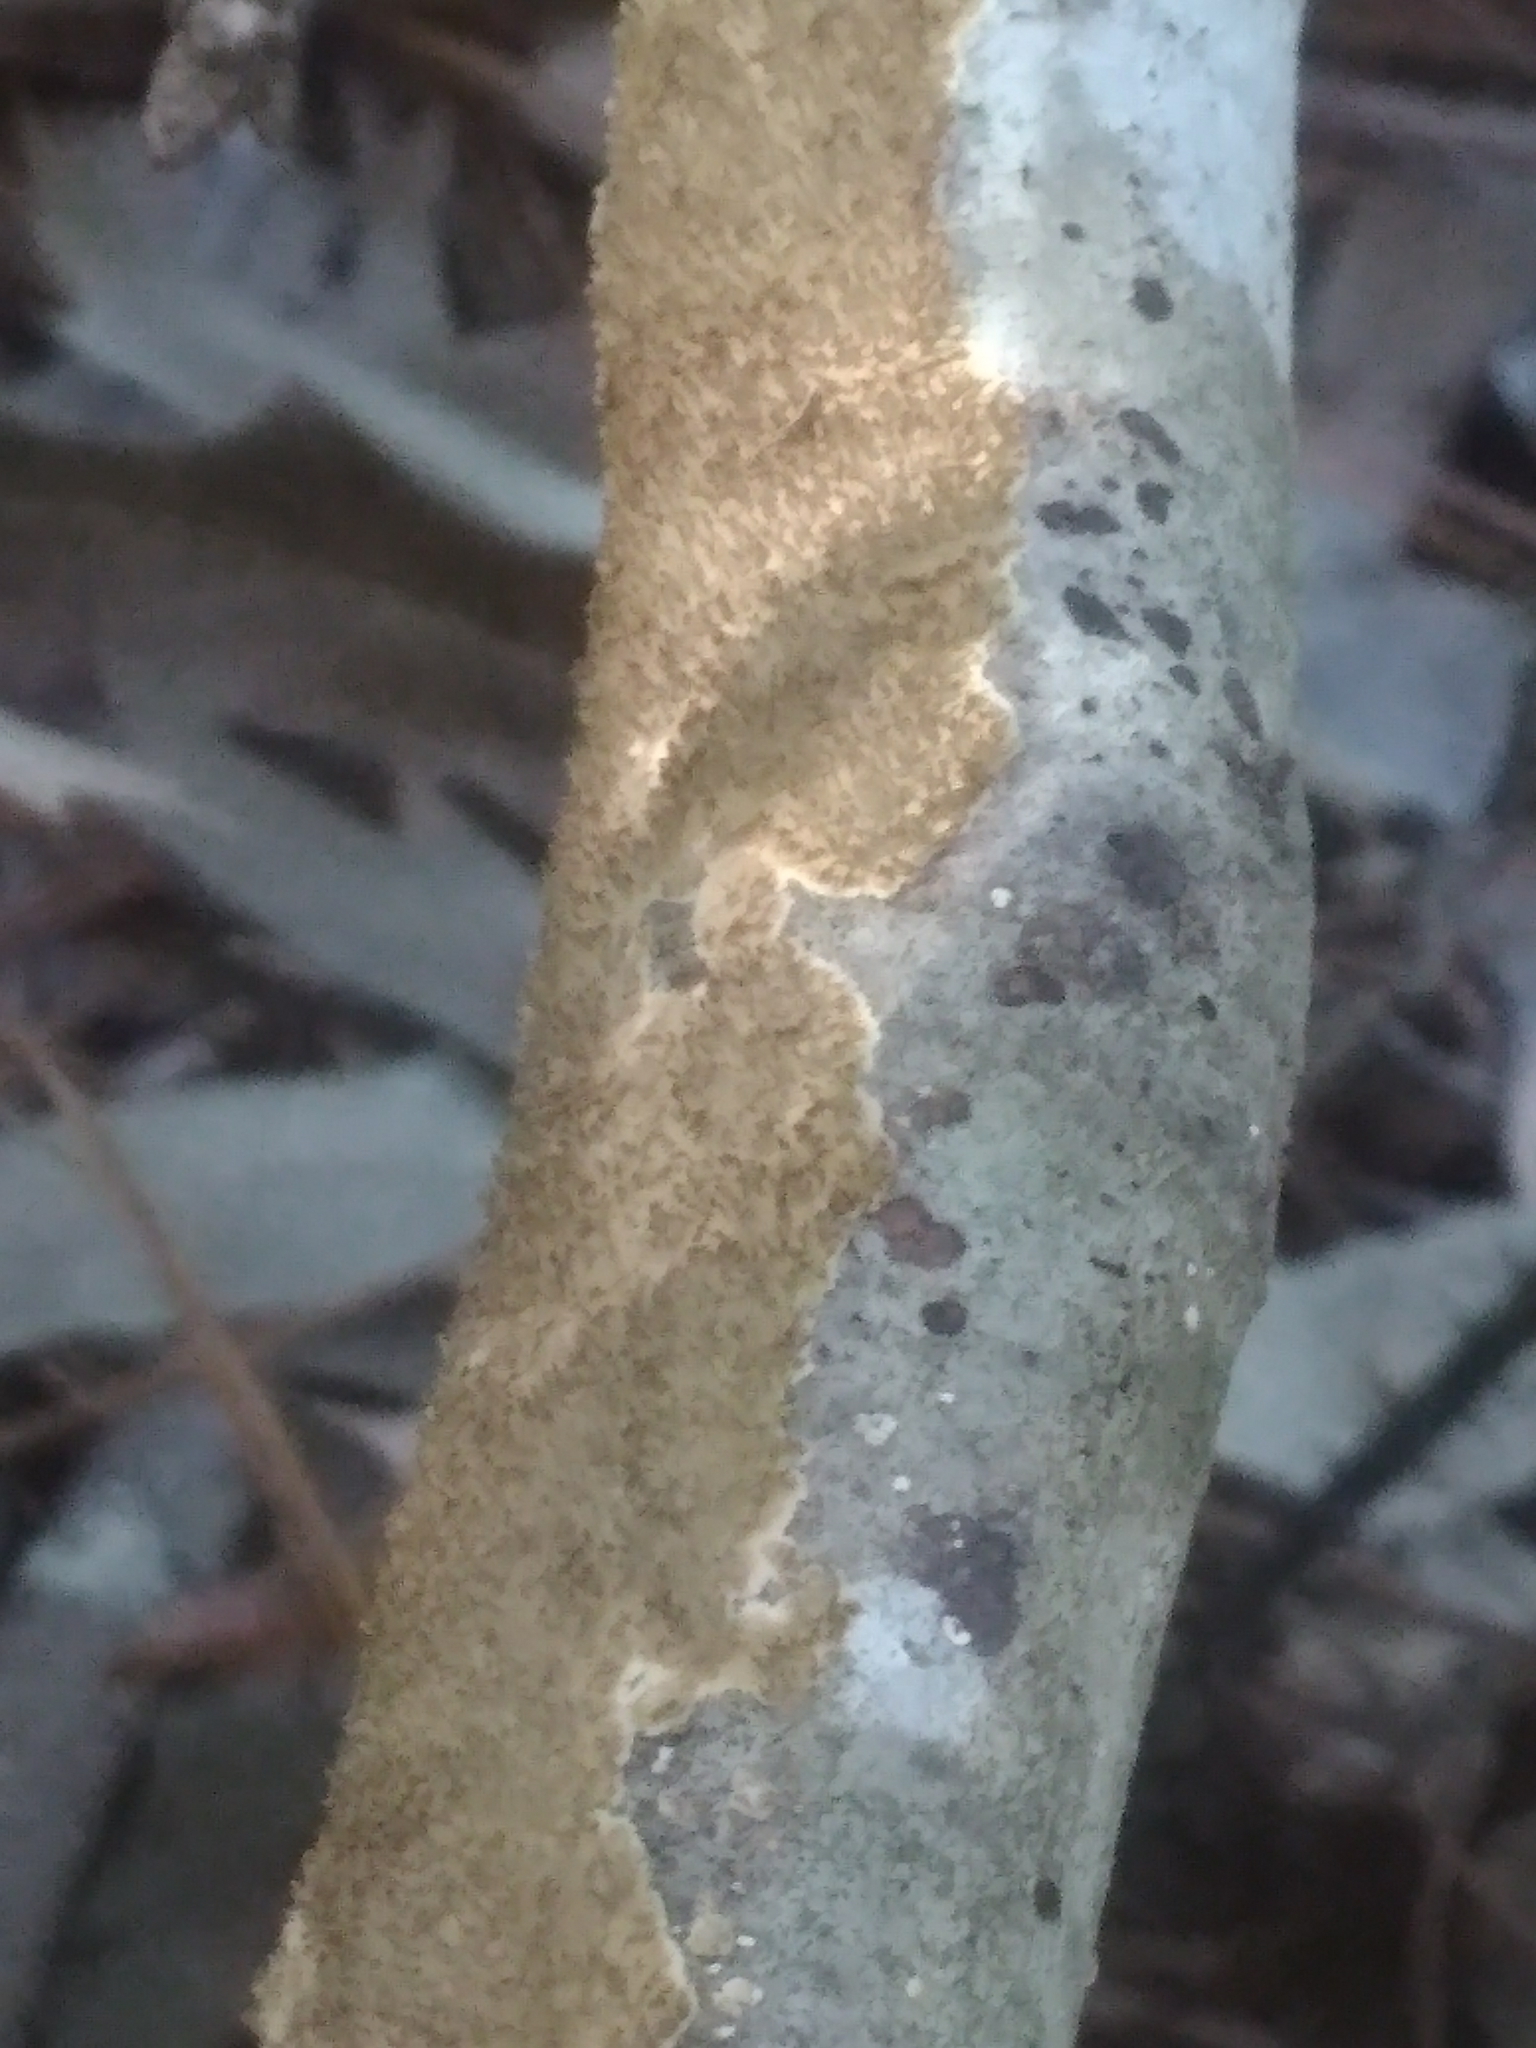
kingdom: Fungi
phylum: Basidiomycota
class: Agaricomycetes
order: Polyporales
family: Irpicaceae
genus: Irpex
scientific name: Irpex lacteus
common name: Milk-white toothed polypore
